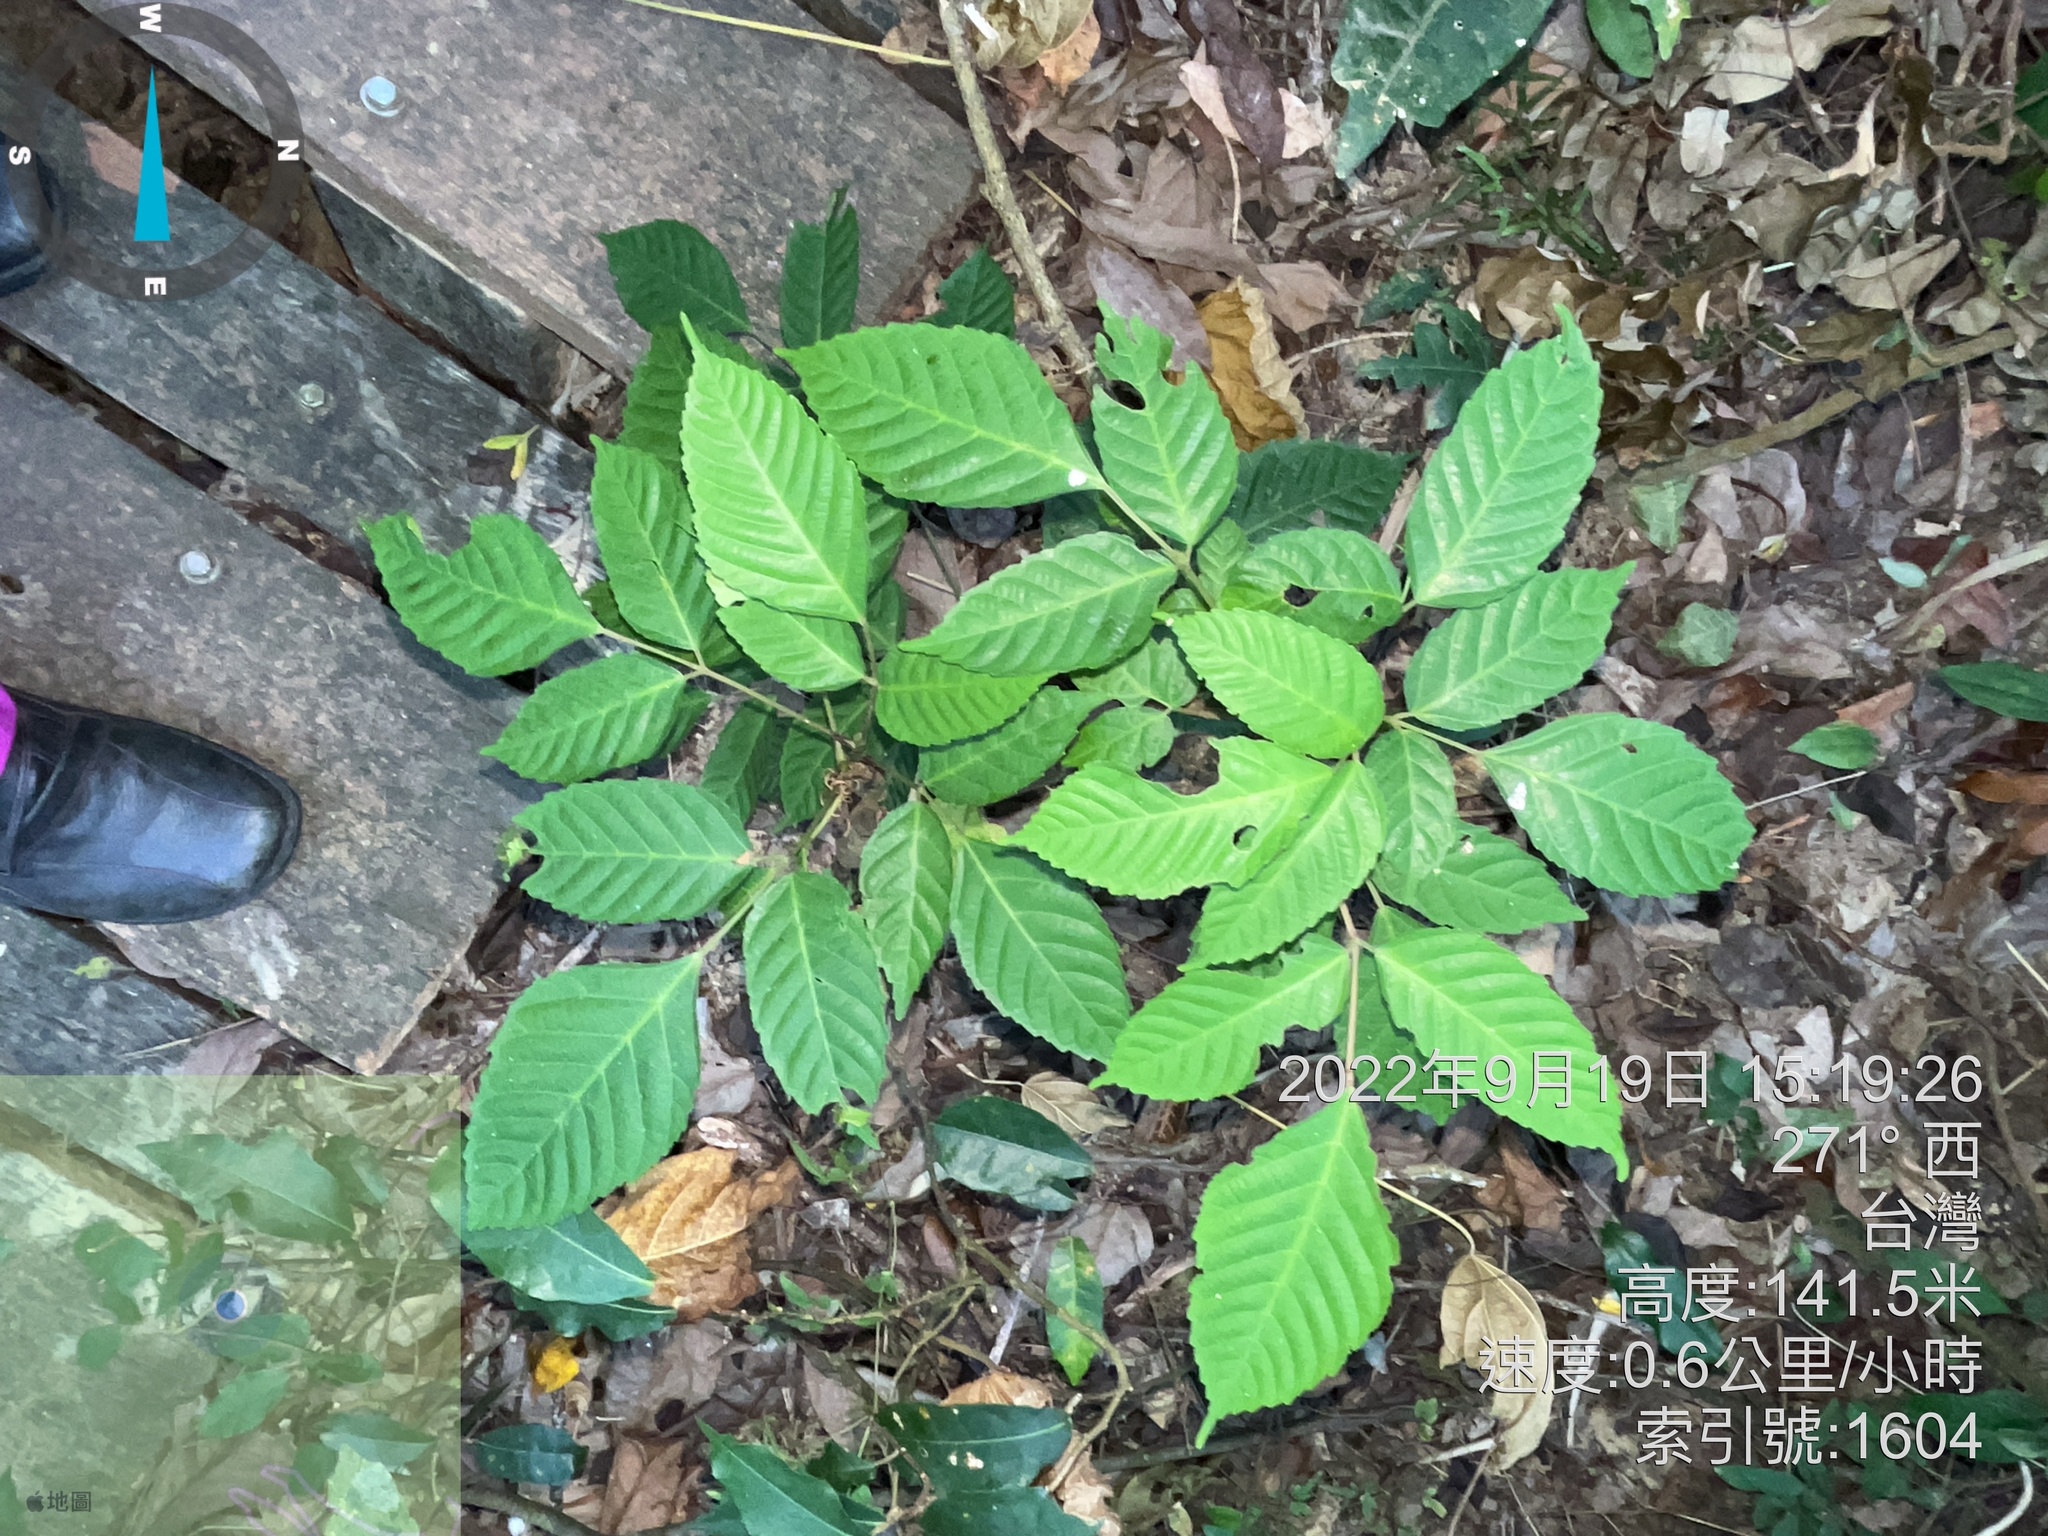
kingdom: Plantae
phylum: Tracheophyta
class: Magnoliopsida
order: Vitales
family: Vitaceae
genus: Leea
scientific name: Leea guineensis
